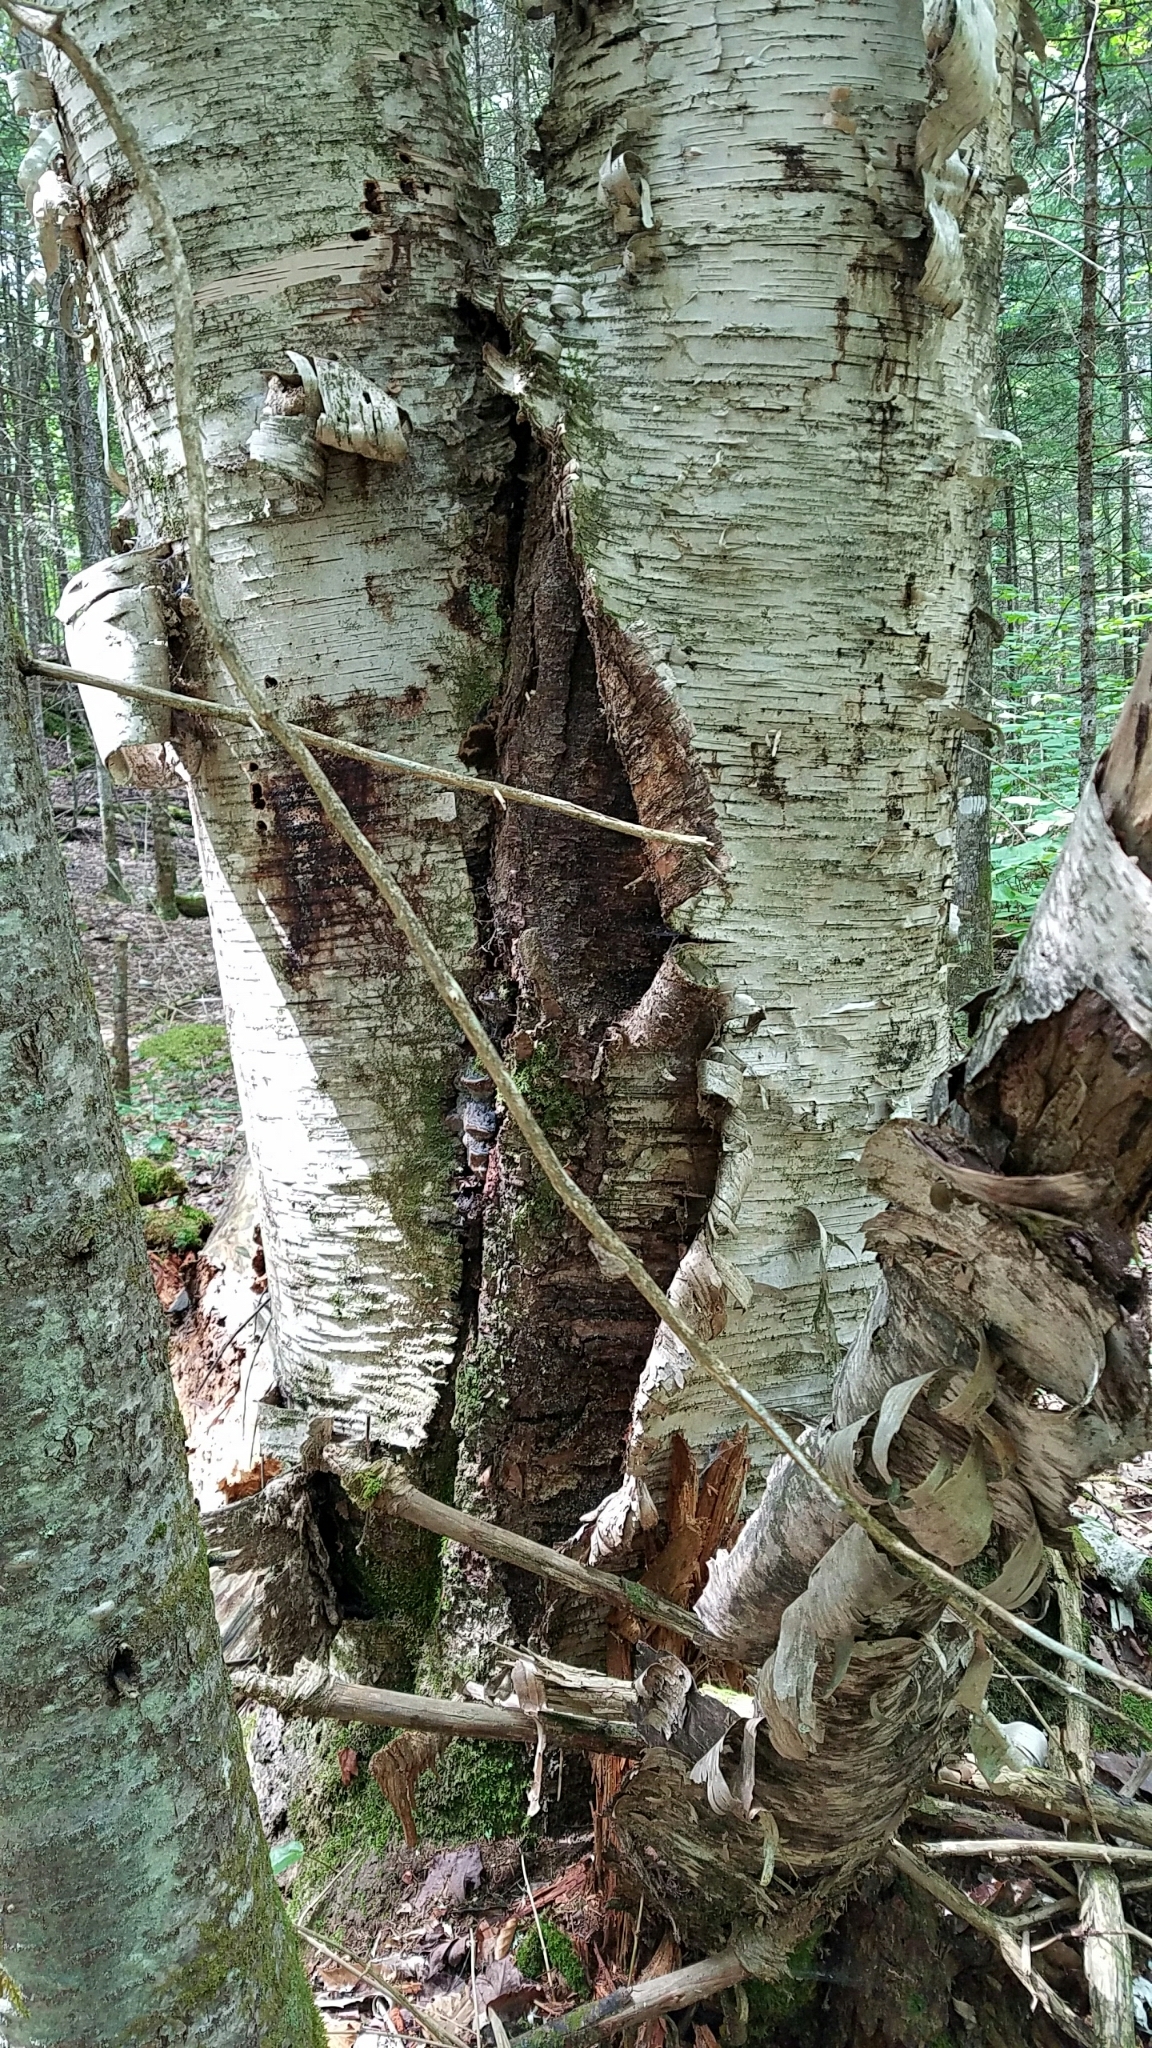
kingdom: Plantae
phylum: Tracheophyta
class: Magnoliopsida
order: Fagales
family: Betulaceae
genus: Betula
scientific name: Betula papyrifera
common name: Paper birch
